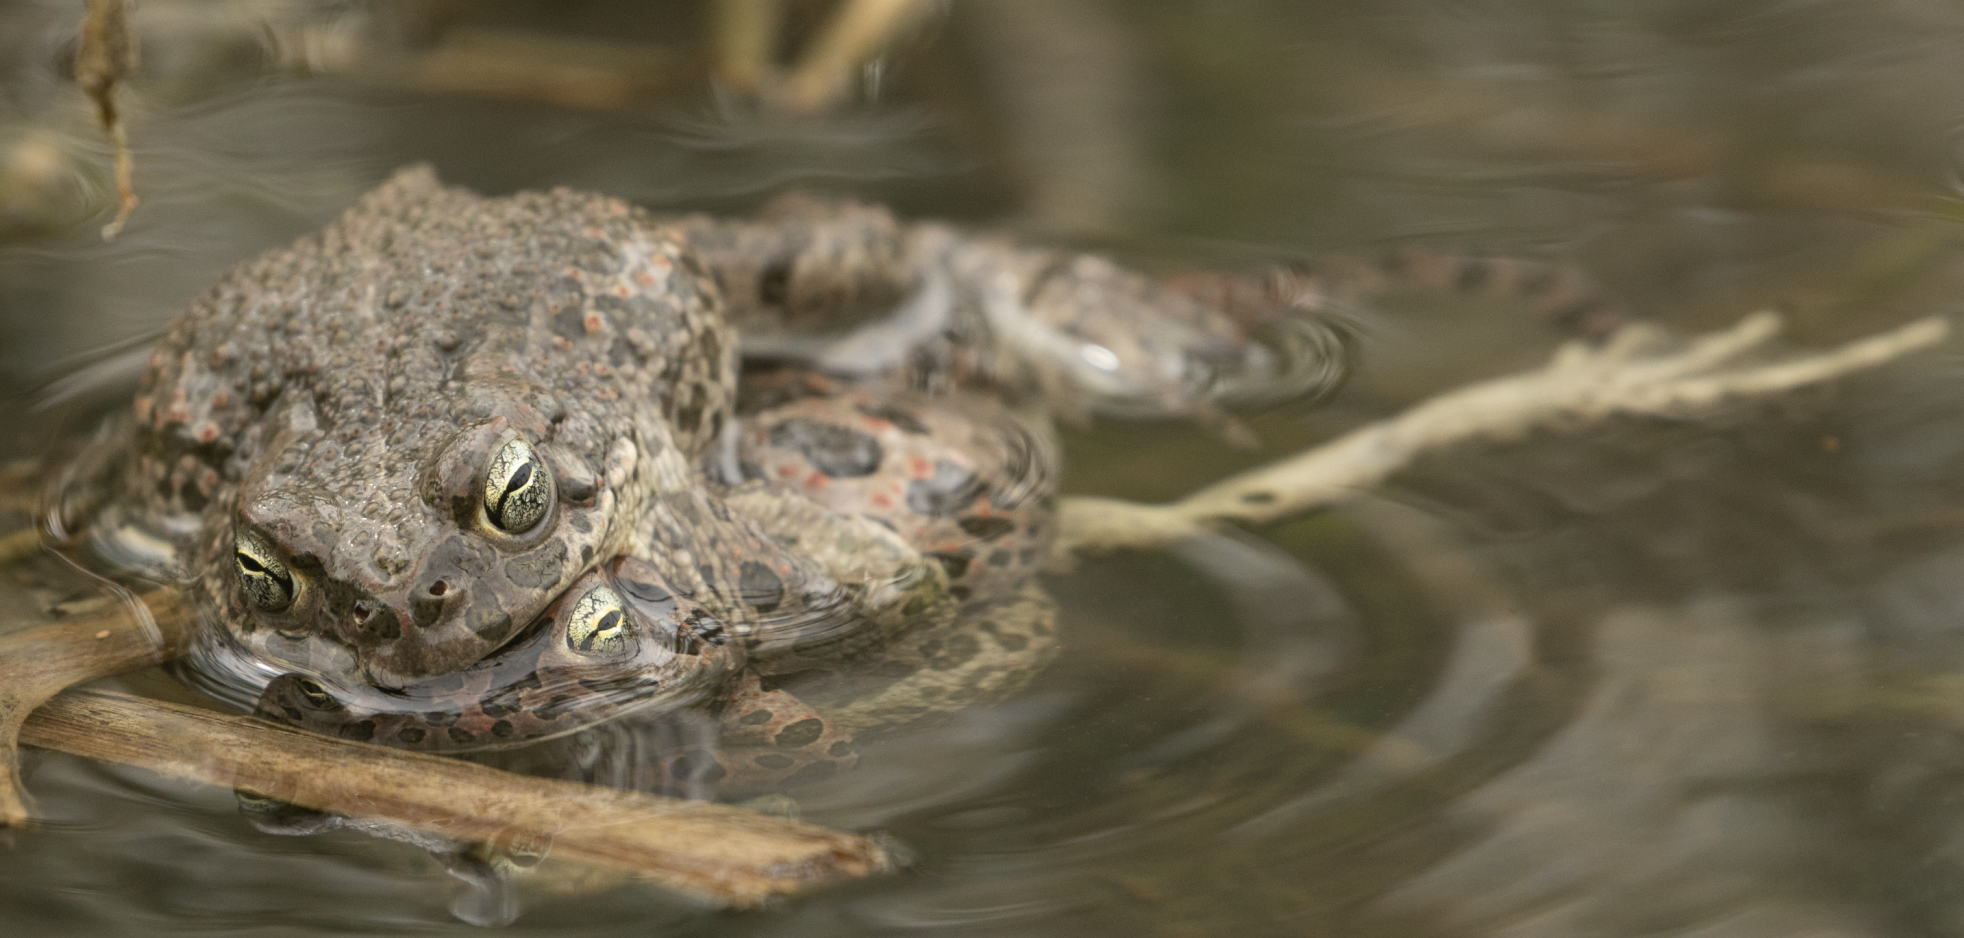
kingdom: Animalia
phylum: Chordata
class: Amphibia
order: Anura
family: Bufonidae
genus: Bufotes
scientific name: Bufotes viridis
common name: European green toad
